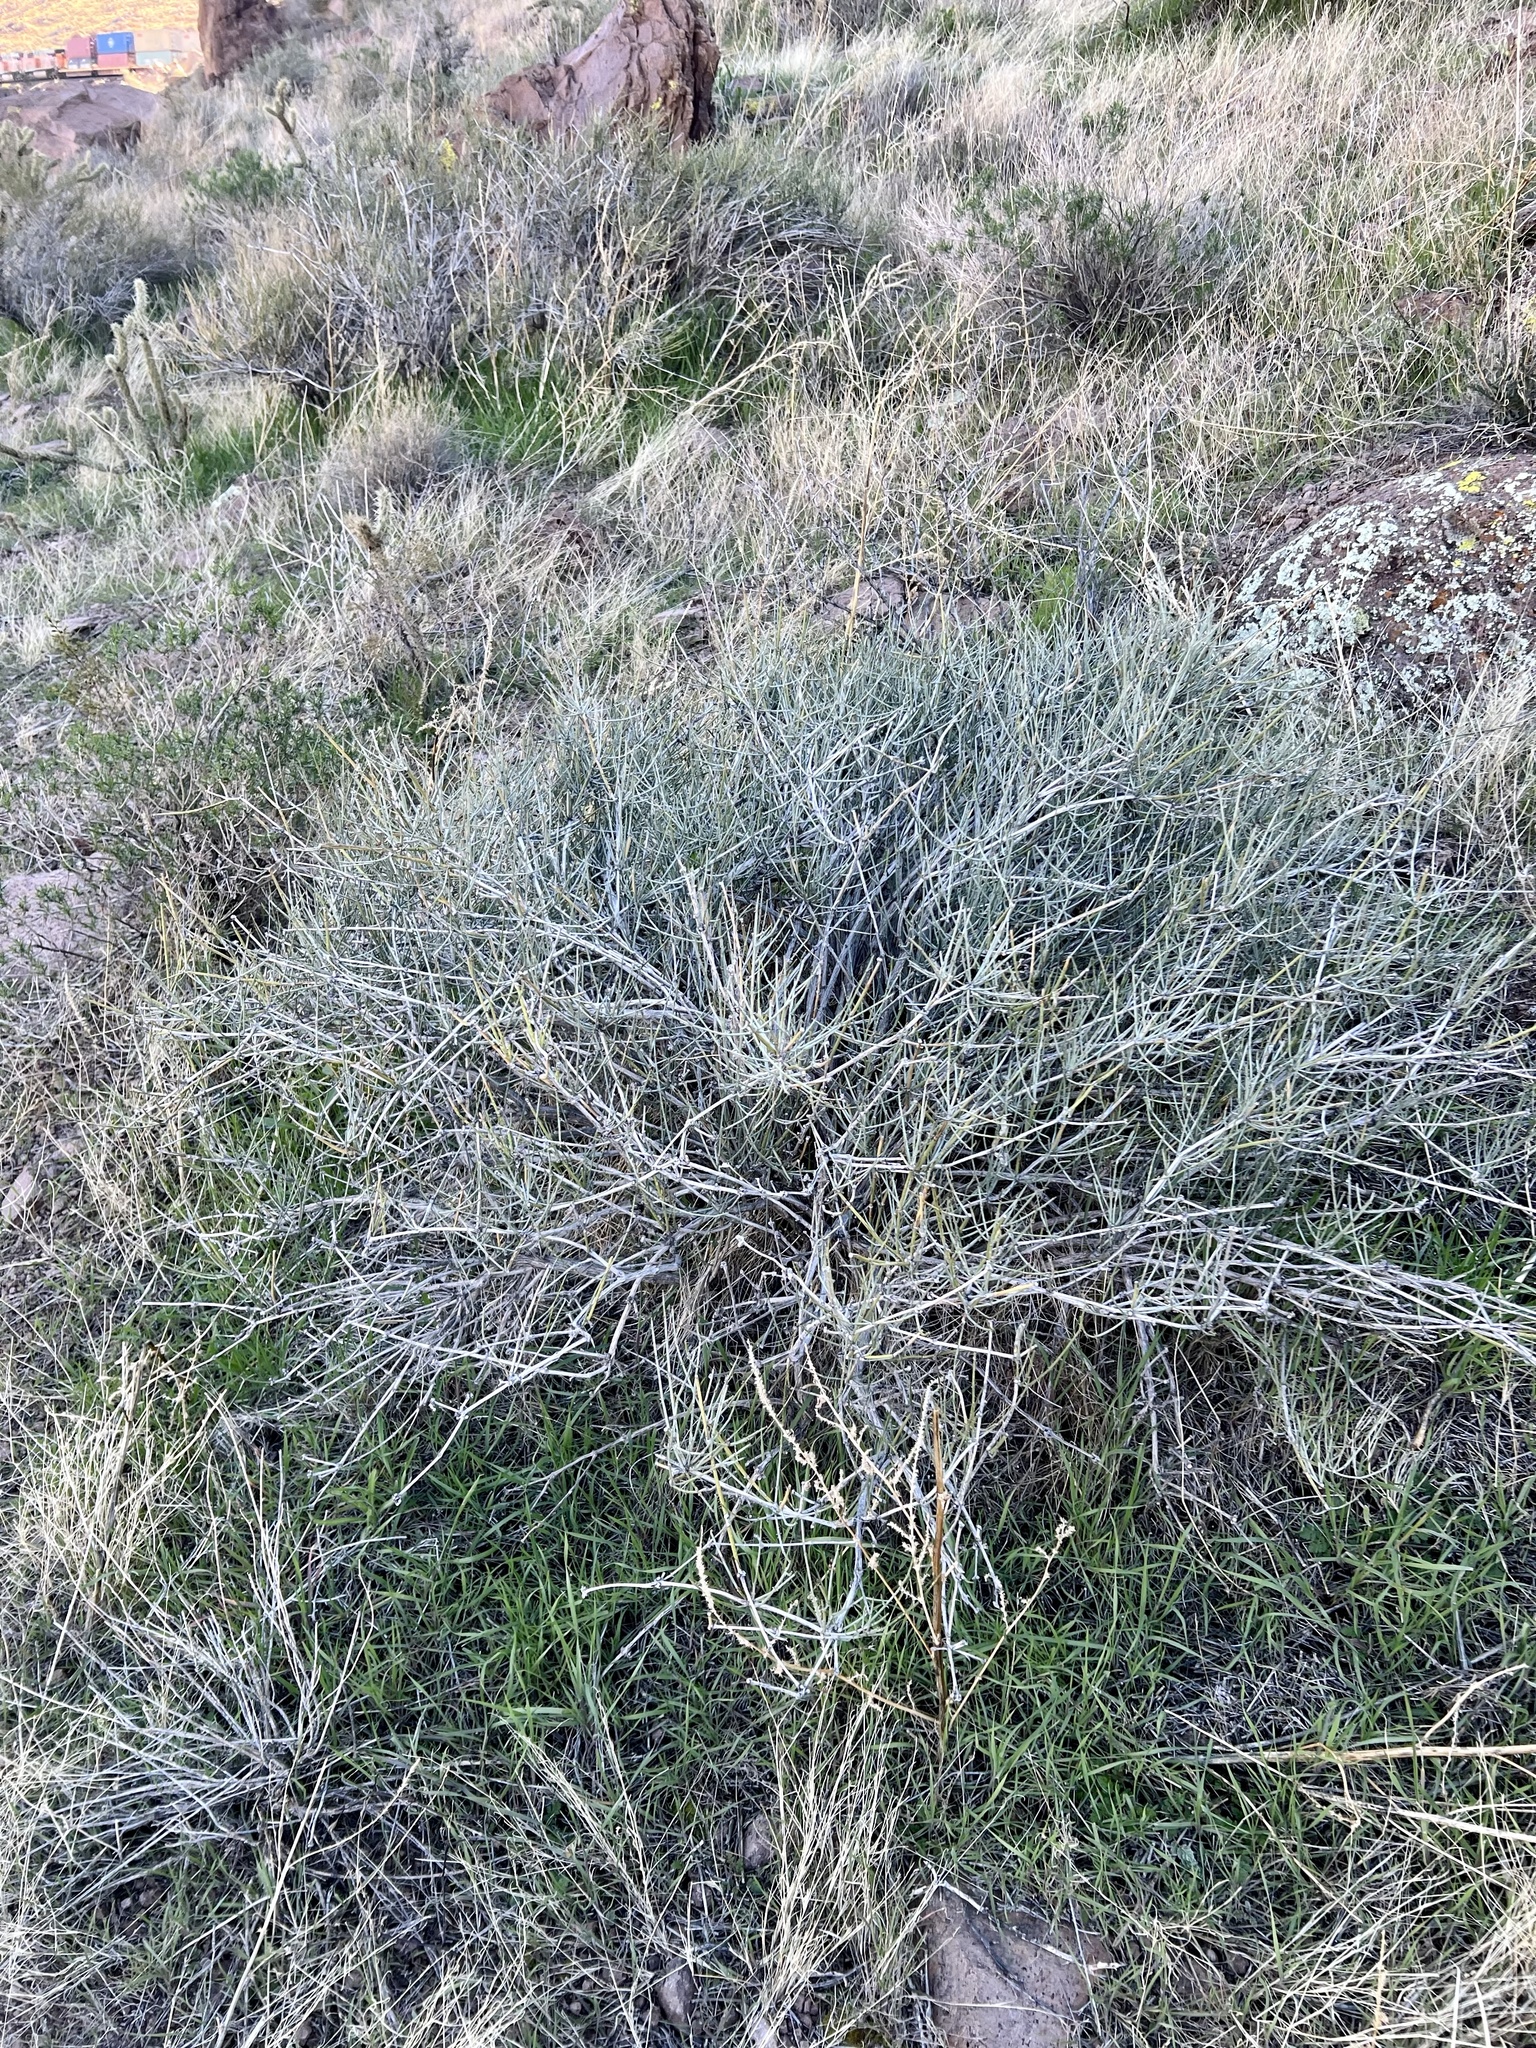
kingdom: Plantae
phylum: Tracheophyta
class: Gnetopsida
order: Ephedrales
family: Ephedraceae
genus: Ephedra
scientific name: Ephedra nevadensis
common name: Gray ephedra
